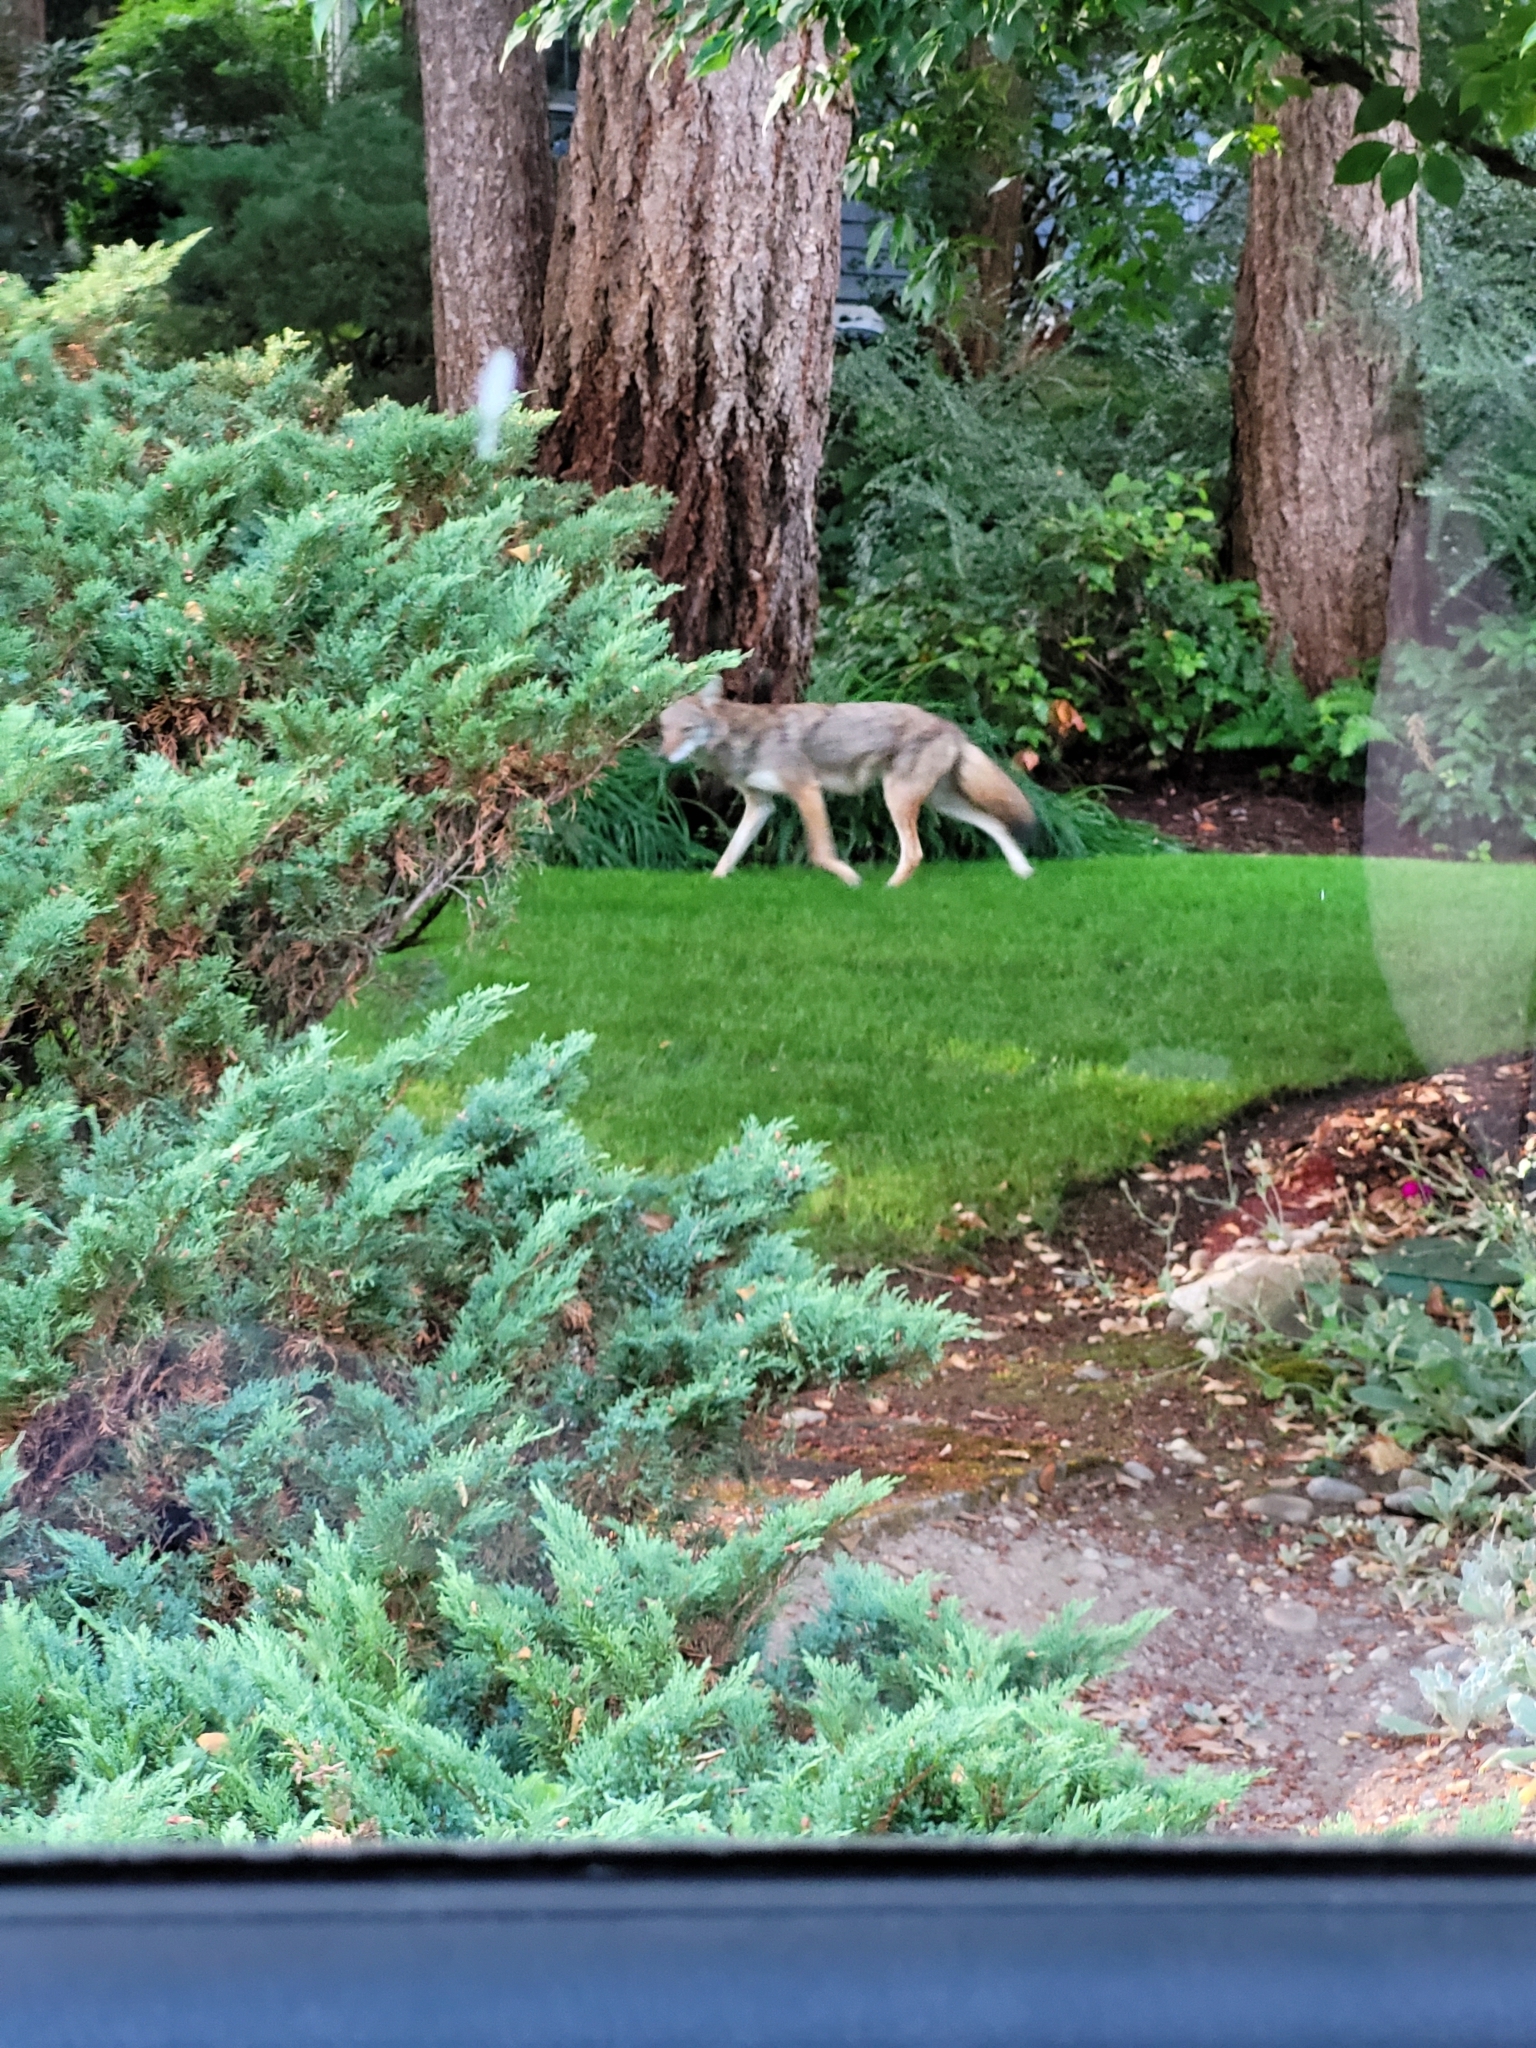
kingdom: Animalia
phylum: Chordata
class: Mammalia
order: Carnivora
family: Canidae
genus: Canis
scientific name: Canis latrans
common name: Coyote
